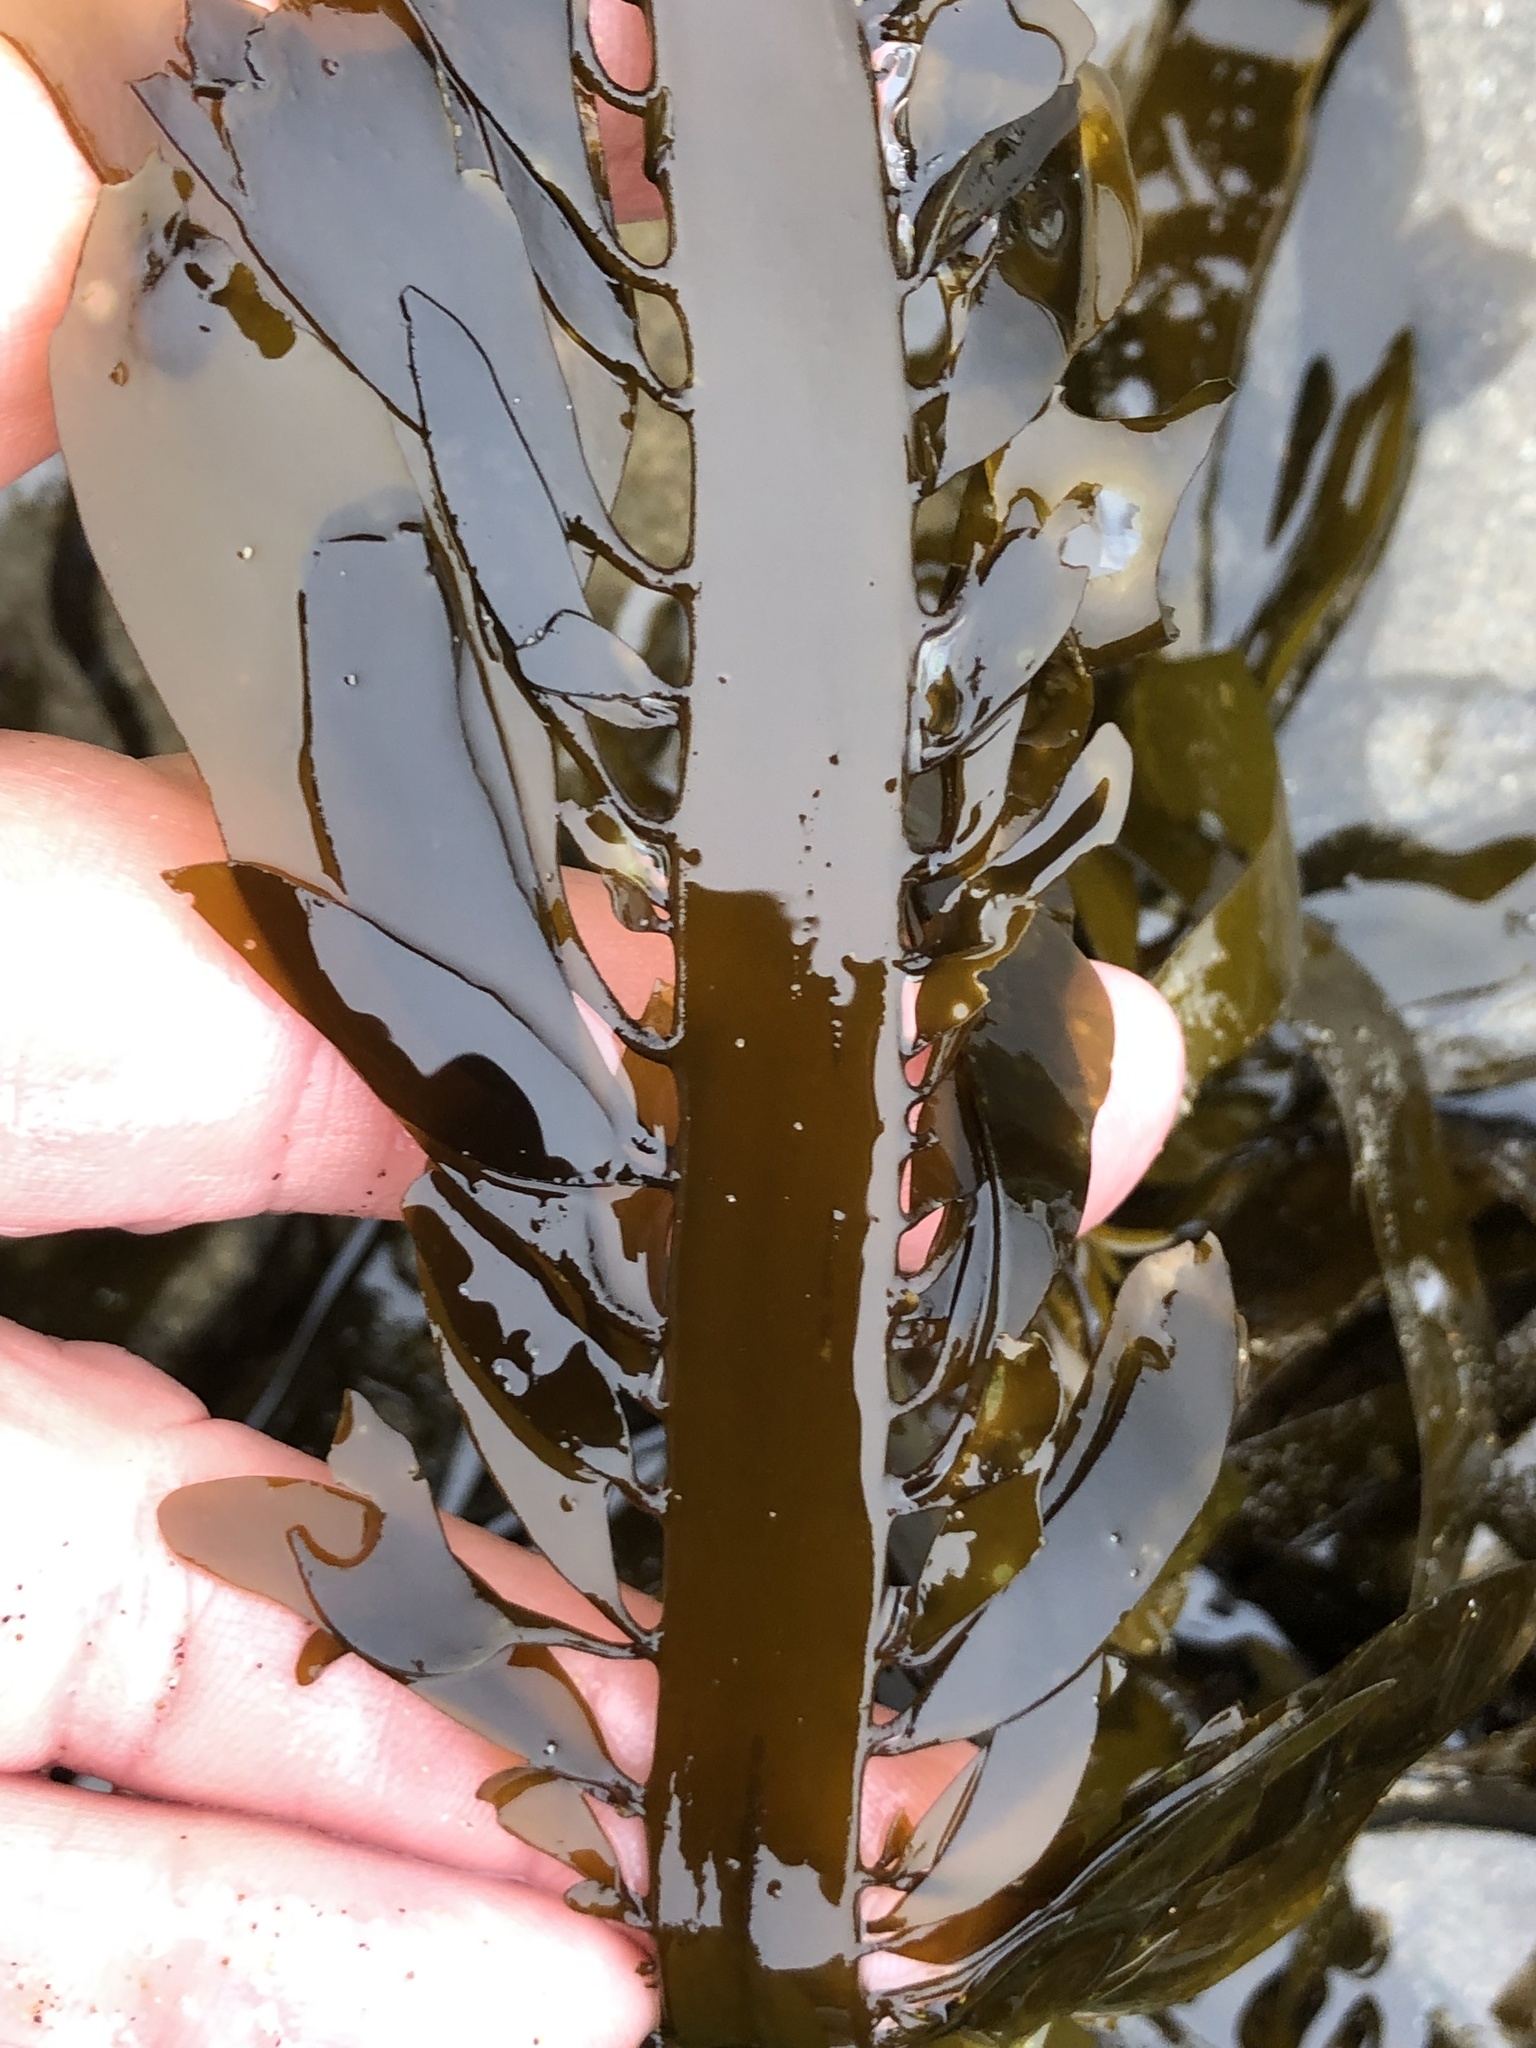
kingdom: Chromista
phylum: Ochrophyta
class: Phaeophyceae
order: Laminariales
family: Lessoniaceae
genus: Egregia
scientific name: Egregia menziesii
